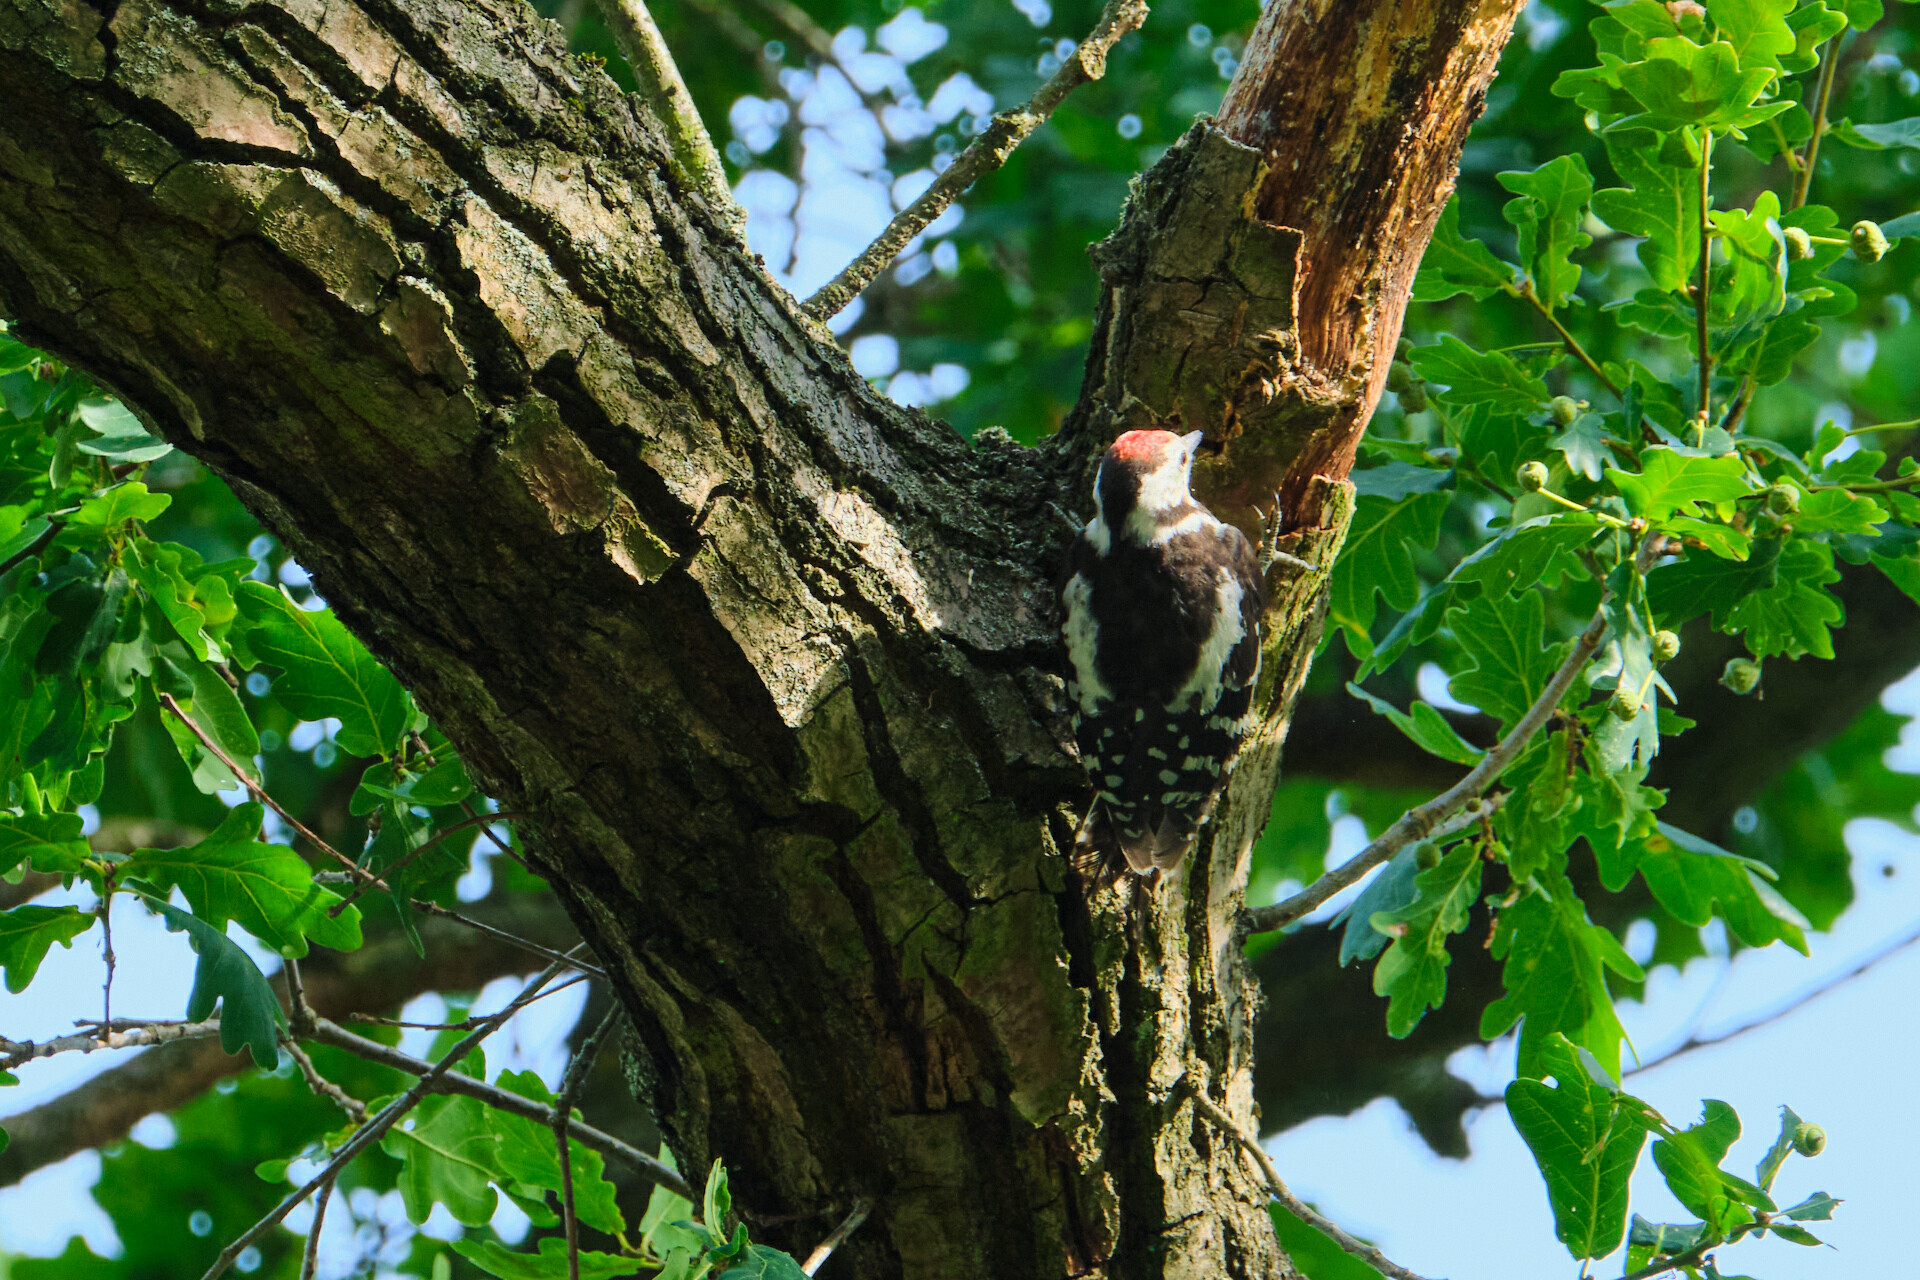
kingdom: Animalia
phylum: Chordata
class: Aves
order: Piciformes
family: Picidae
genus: Dendrocoptes
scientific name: Dendrocoptes medius
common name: Middle spotted woodpecker
